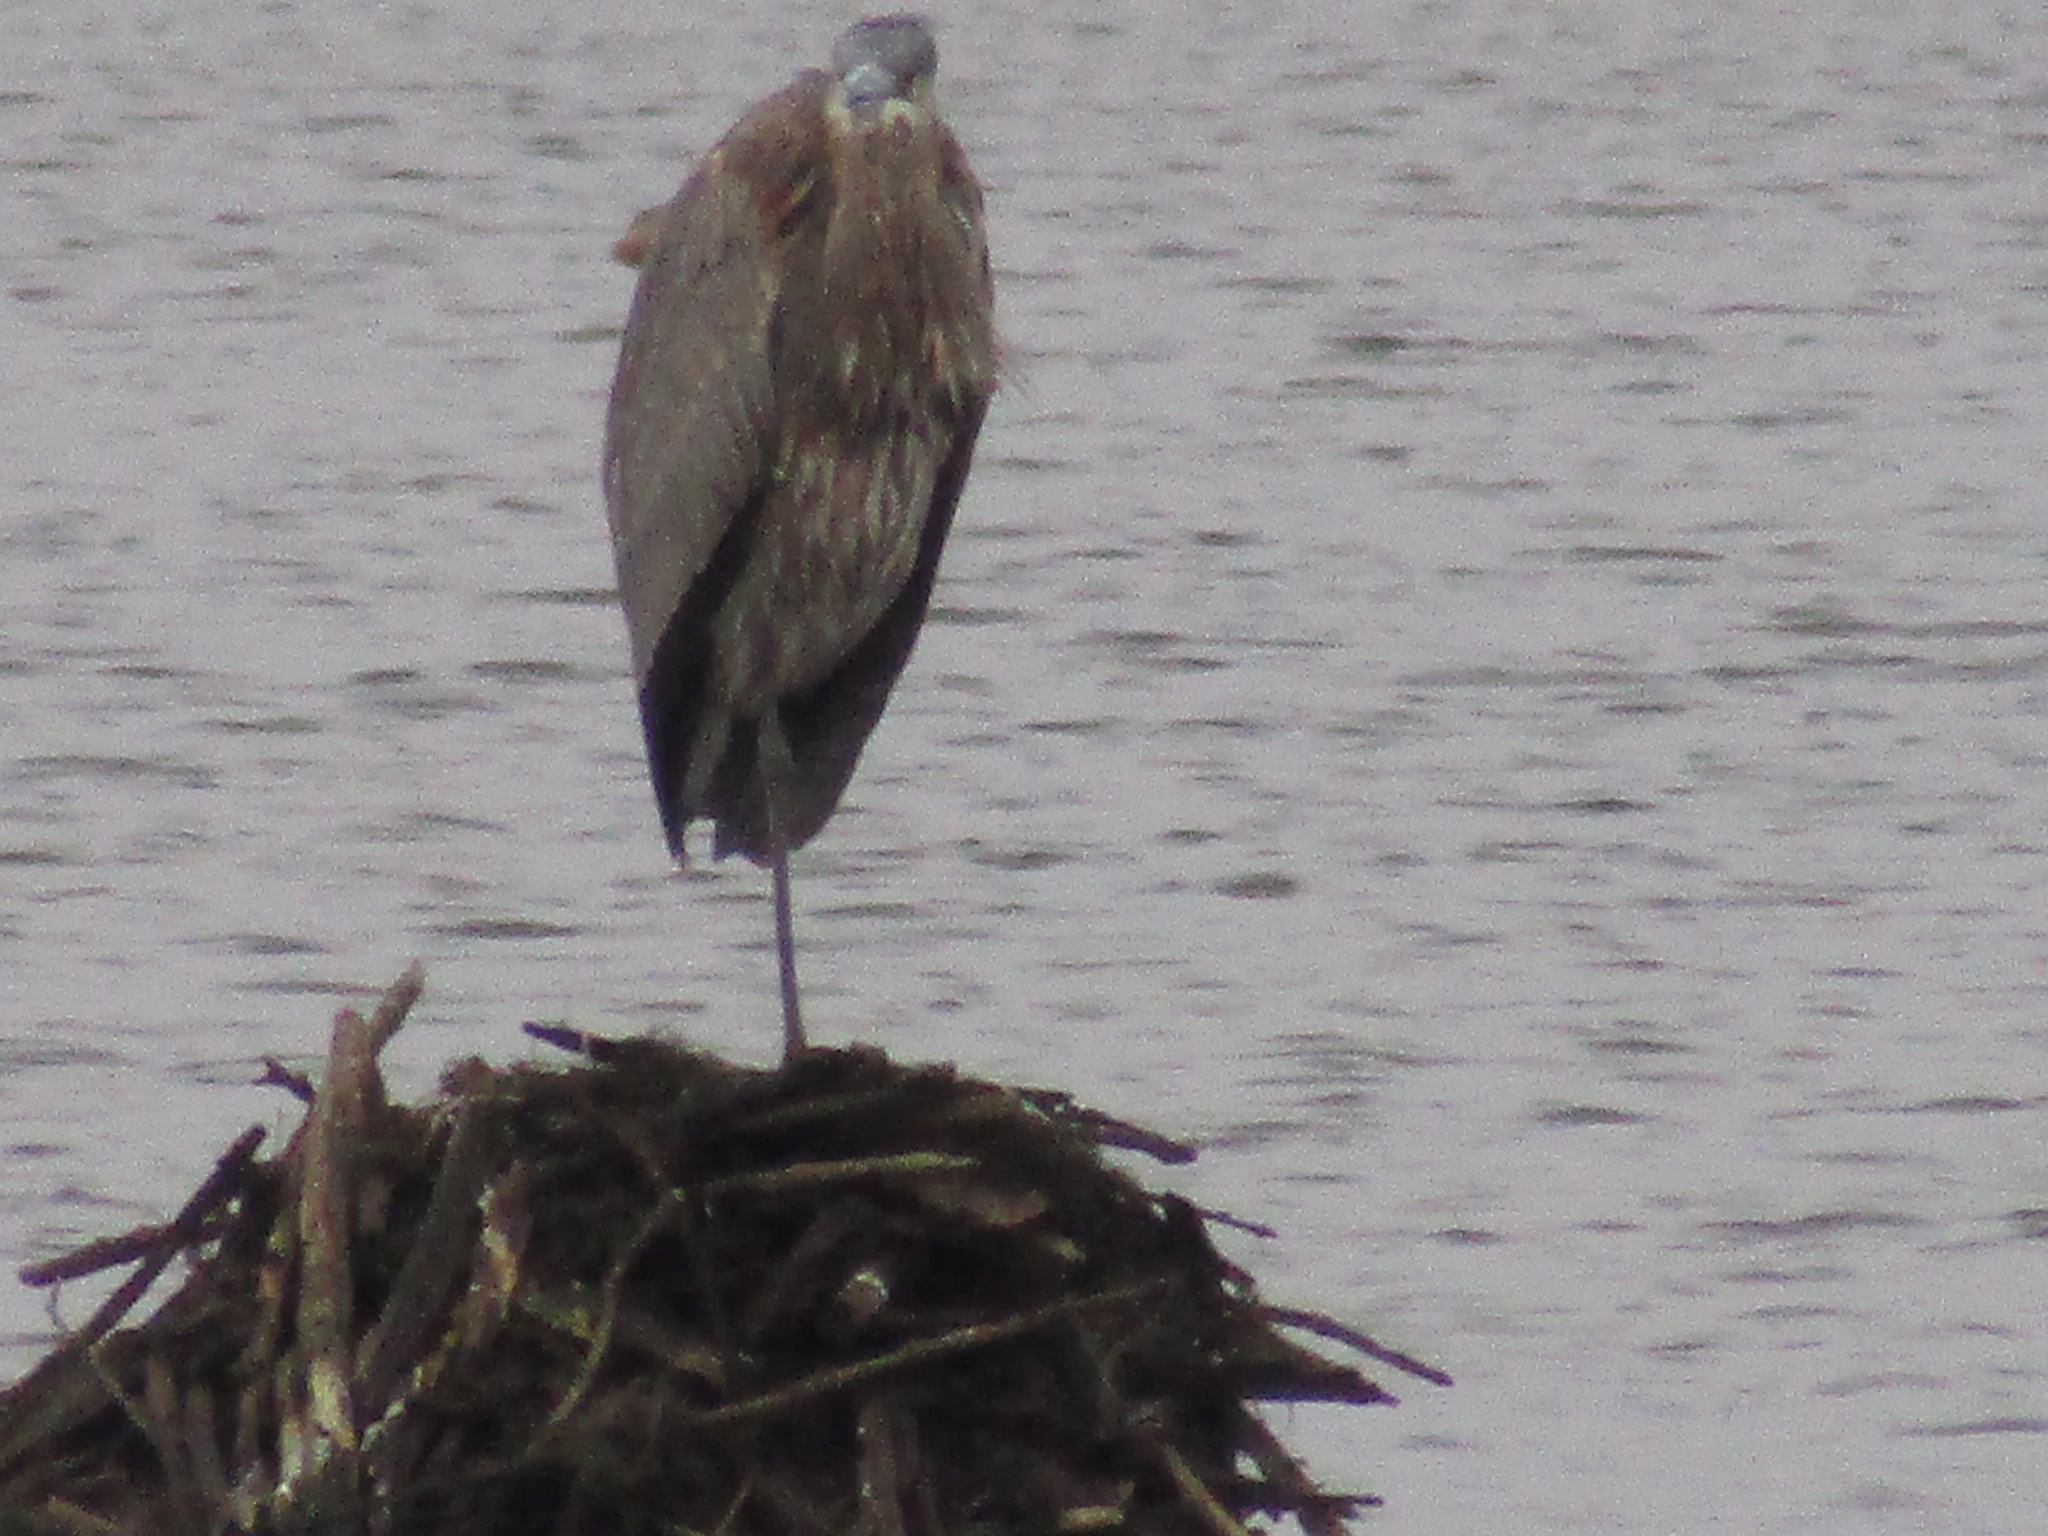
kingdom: Animalia
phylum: Chordata
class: Aves
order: Pelecaniformes
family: Ardeidae
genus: Ardea
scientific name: Ardea herodias
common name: Great blue heron
